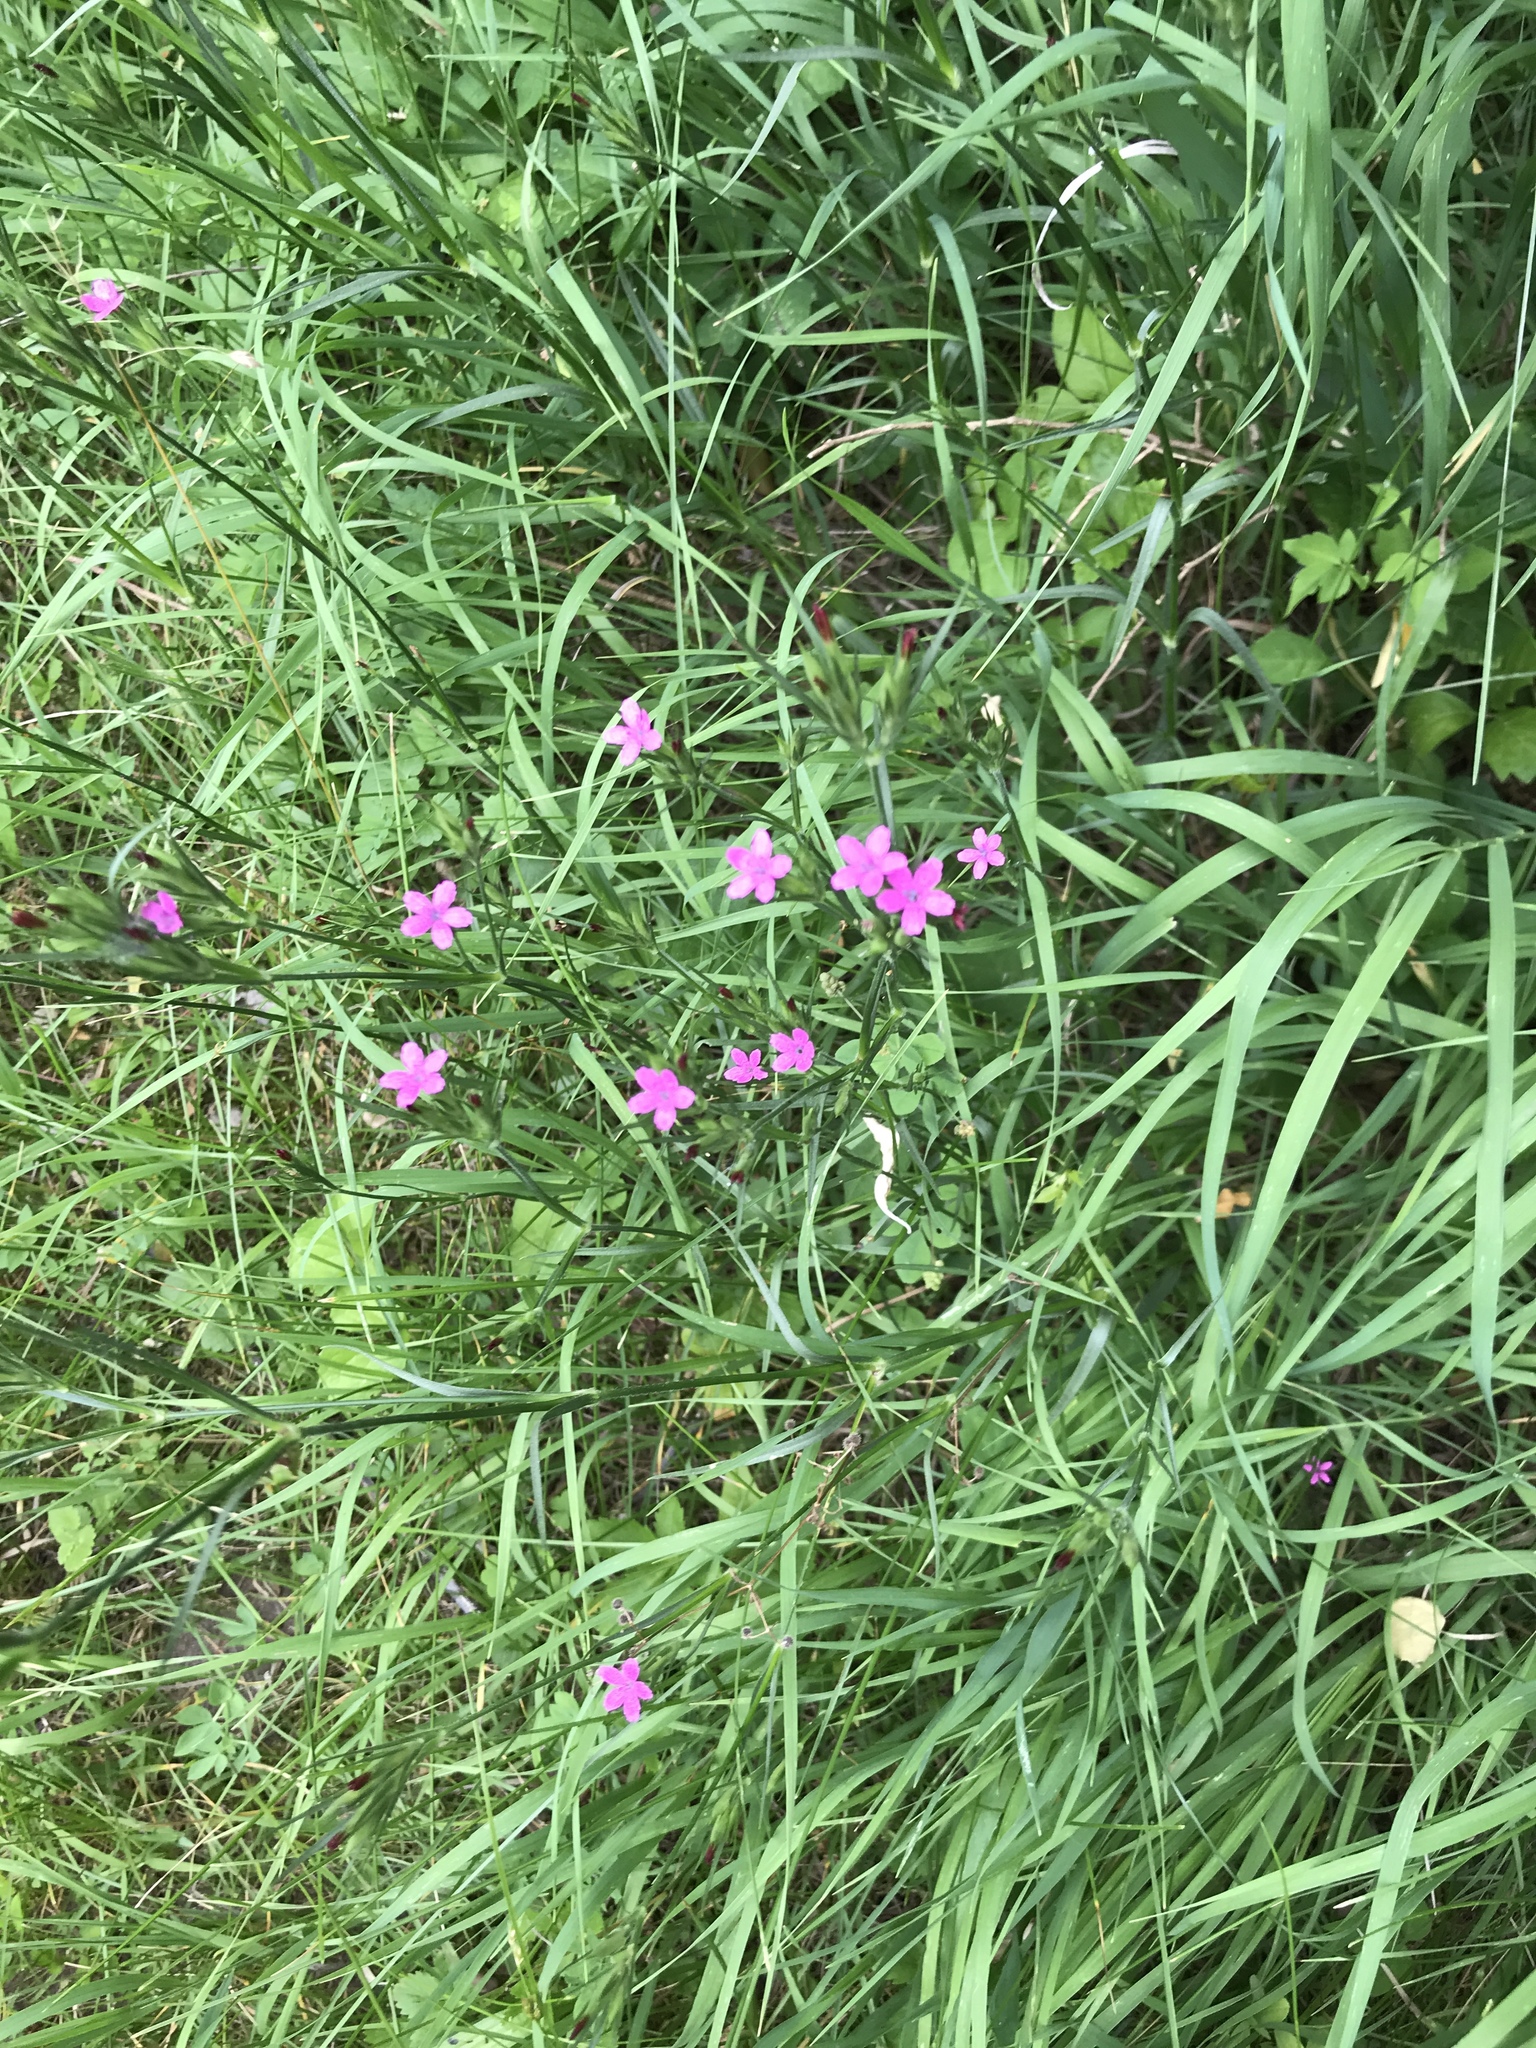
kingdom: Plantae
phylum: Tracheophyta
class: Magnoliopsida
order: Caryophyllales
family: Caryophyllaceae
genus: Dianthus
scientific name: Dianthus armeria
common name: Deptford pink
